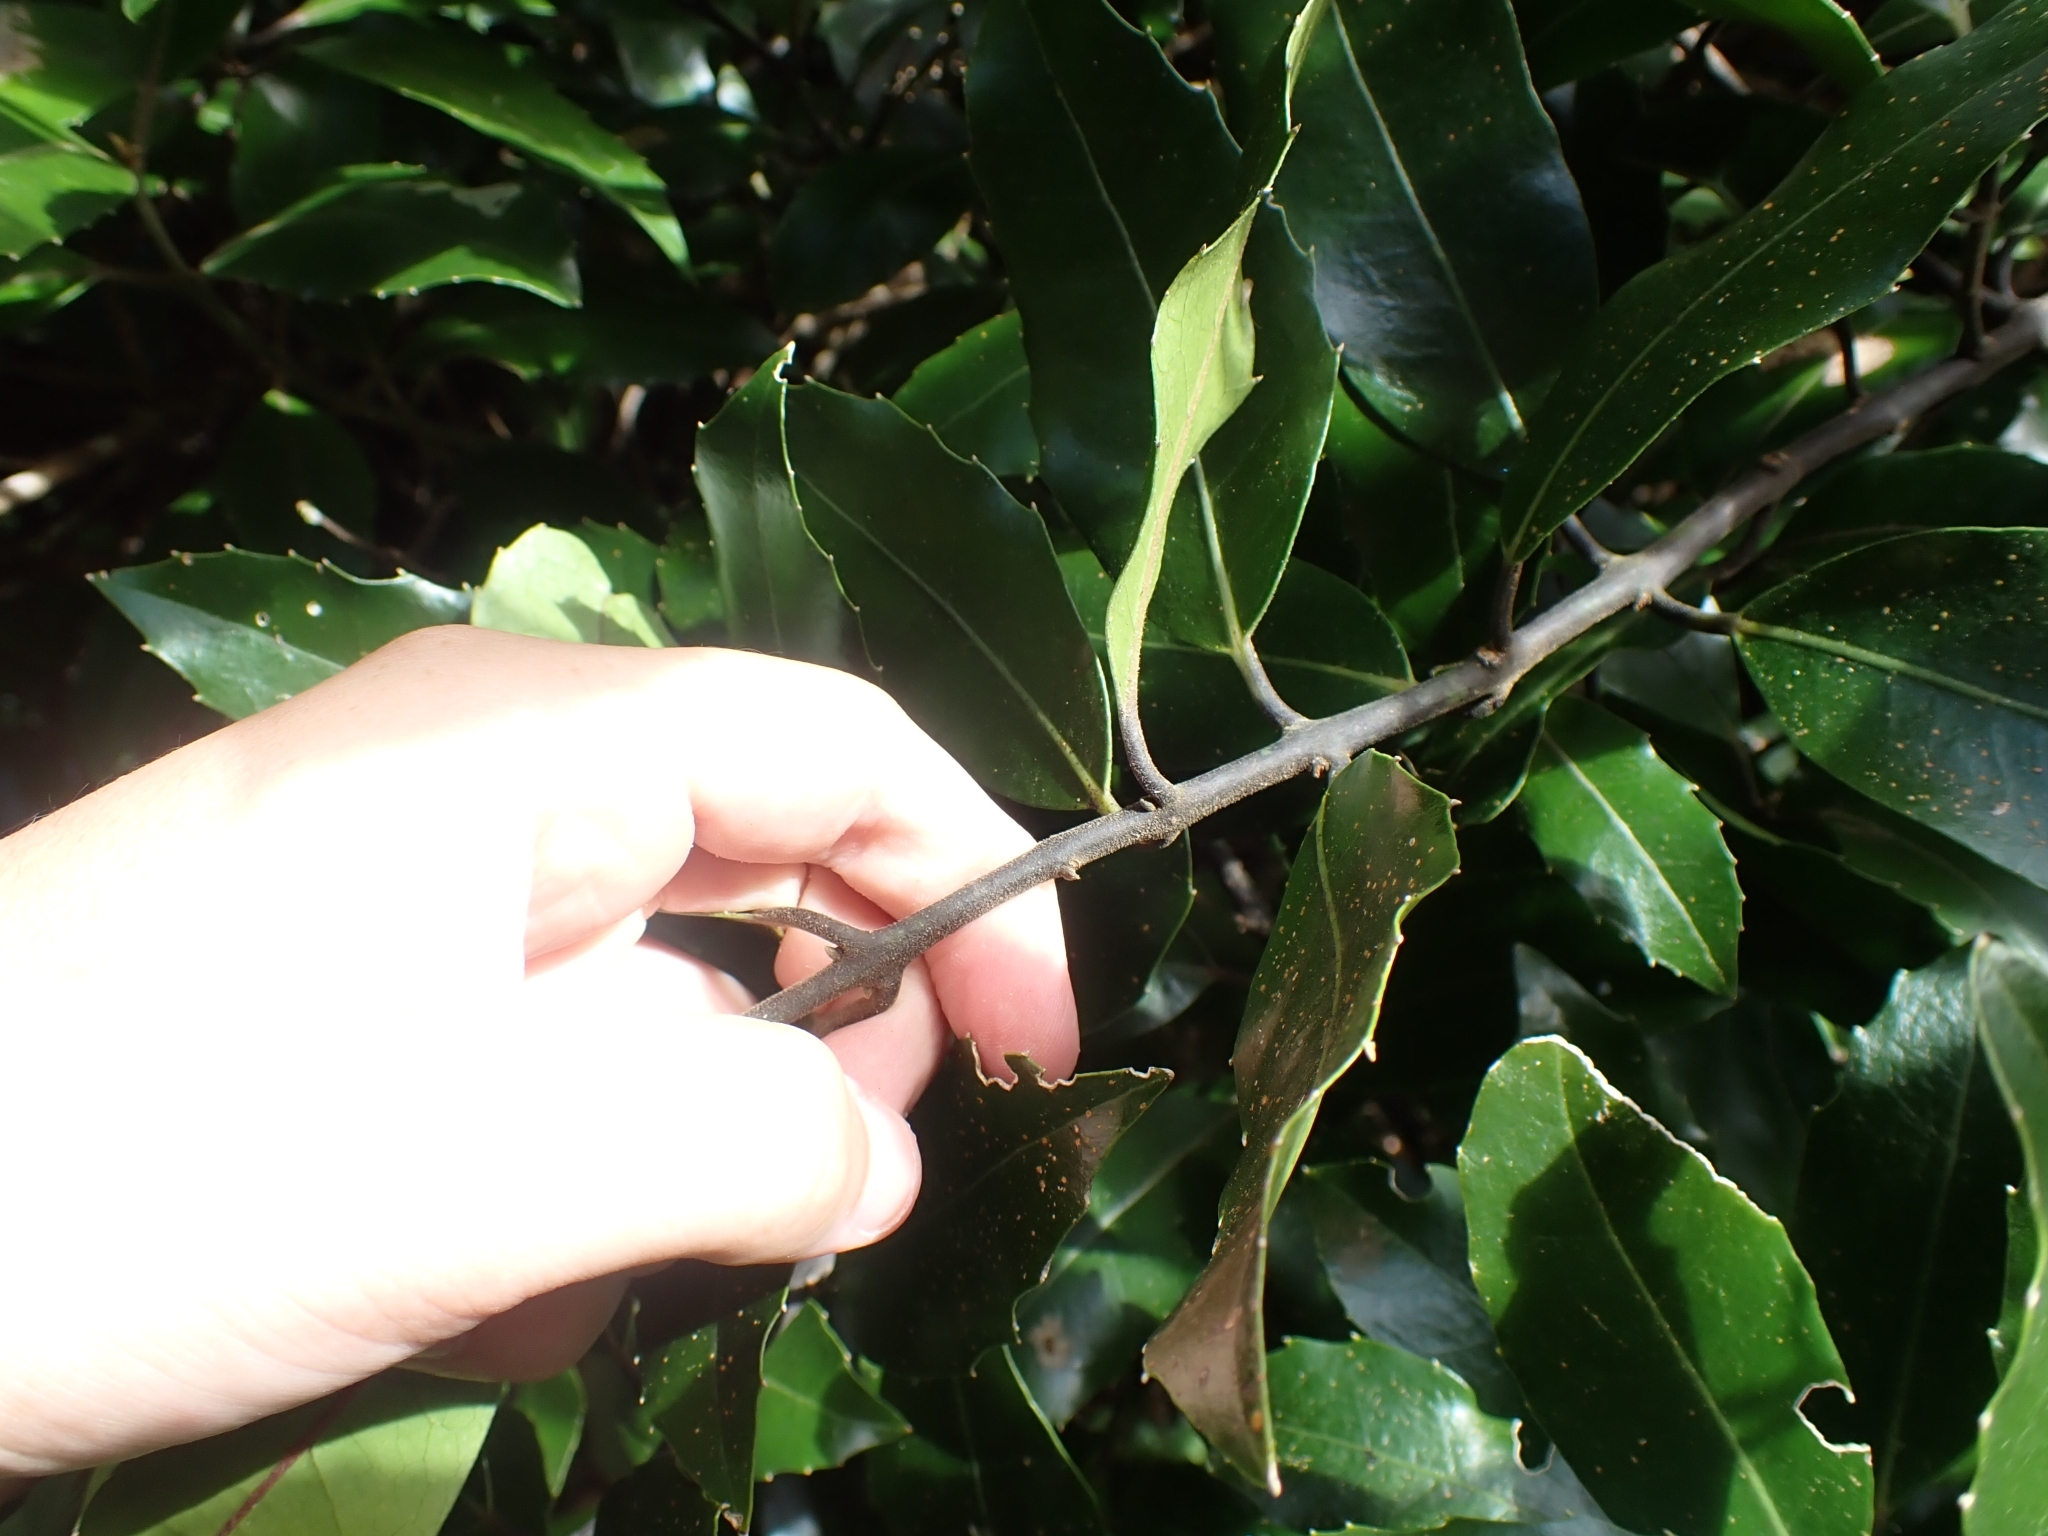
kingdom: Plantae
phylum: Tracheophyta
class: Magnoliopsida
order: Laurales
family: Monimiaceae
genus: Hedycarya
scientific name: Hedycarya arborea
